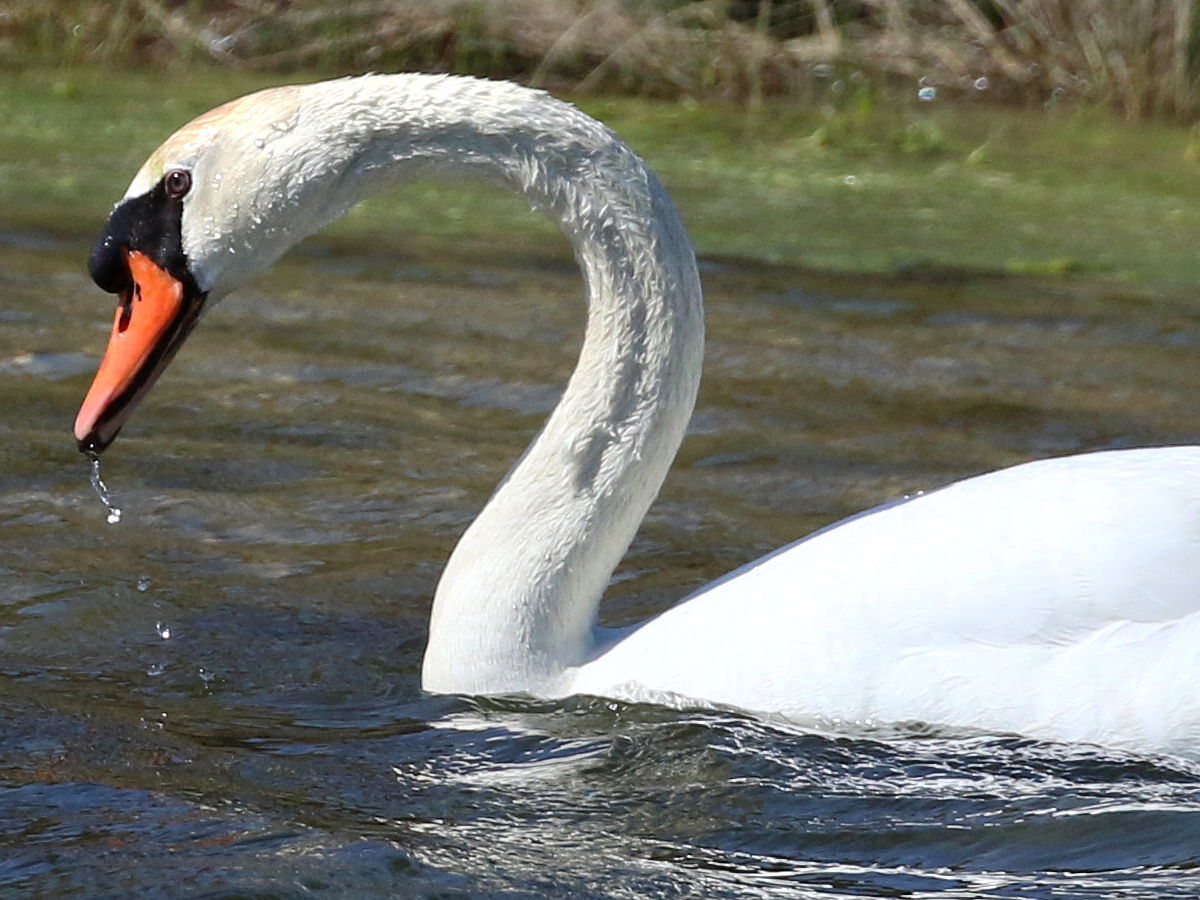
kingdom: Animalia
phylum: Chordata
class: Aves
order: Anseriformes
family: Anatidae
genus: Cygnus
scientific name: Cygnus olor
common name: Mute swan
